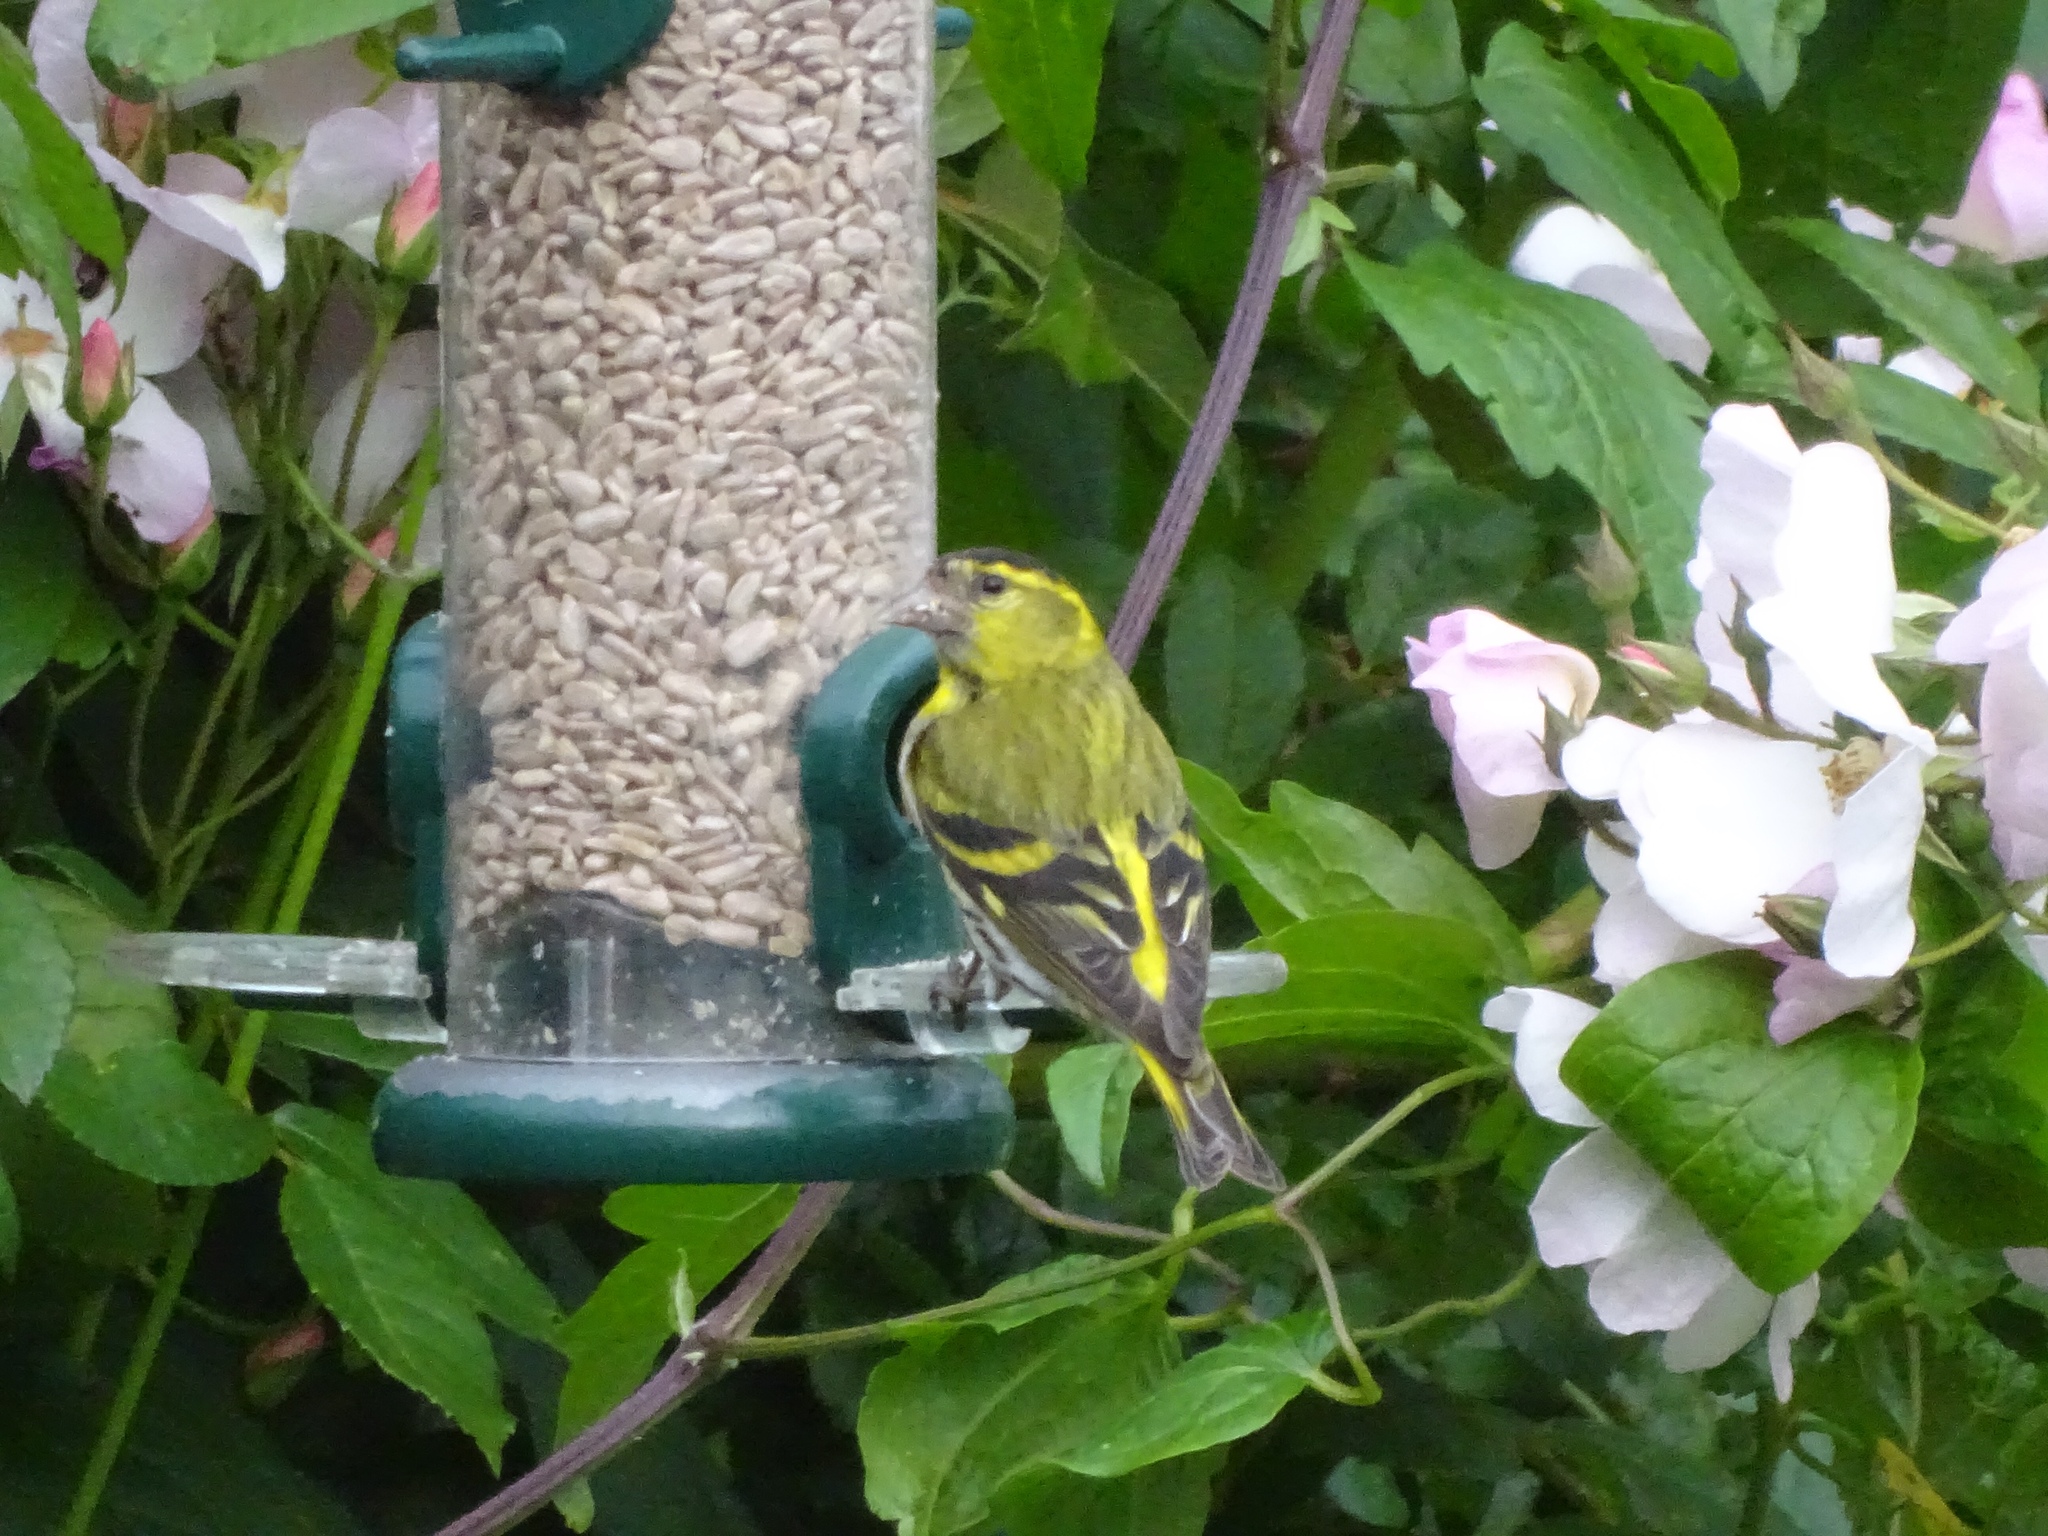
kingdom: Animalia
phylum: Chordata
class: Aves
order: Passeriformes
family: Fringillidae
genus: Spinus
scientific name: Spinus spinus
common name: Eurasian siskin
